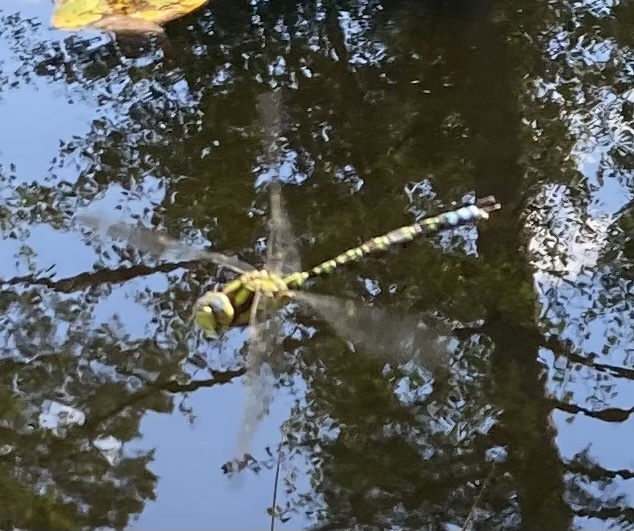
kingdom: Animalia
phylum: Arthropoda
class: Insecta
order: Odonata
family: Aeshnidae
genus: Aeshna
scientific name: Aeshna cyanea
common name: Southern hawker
